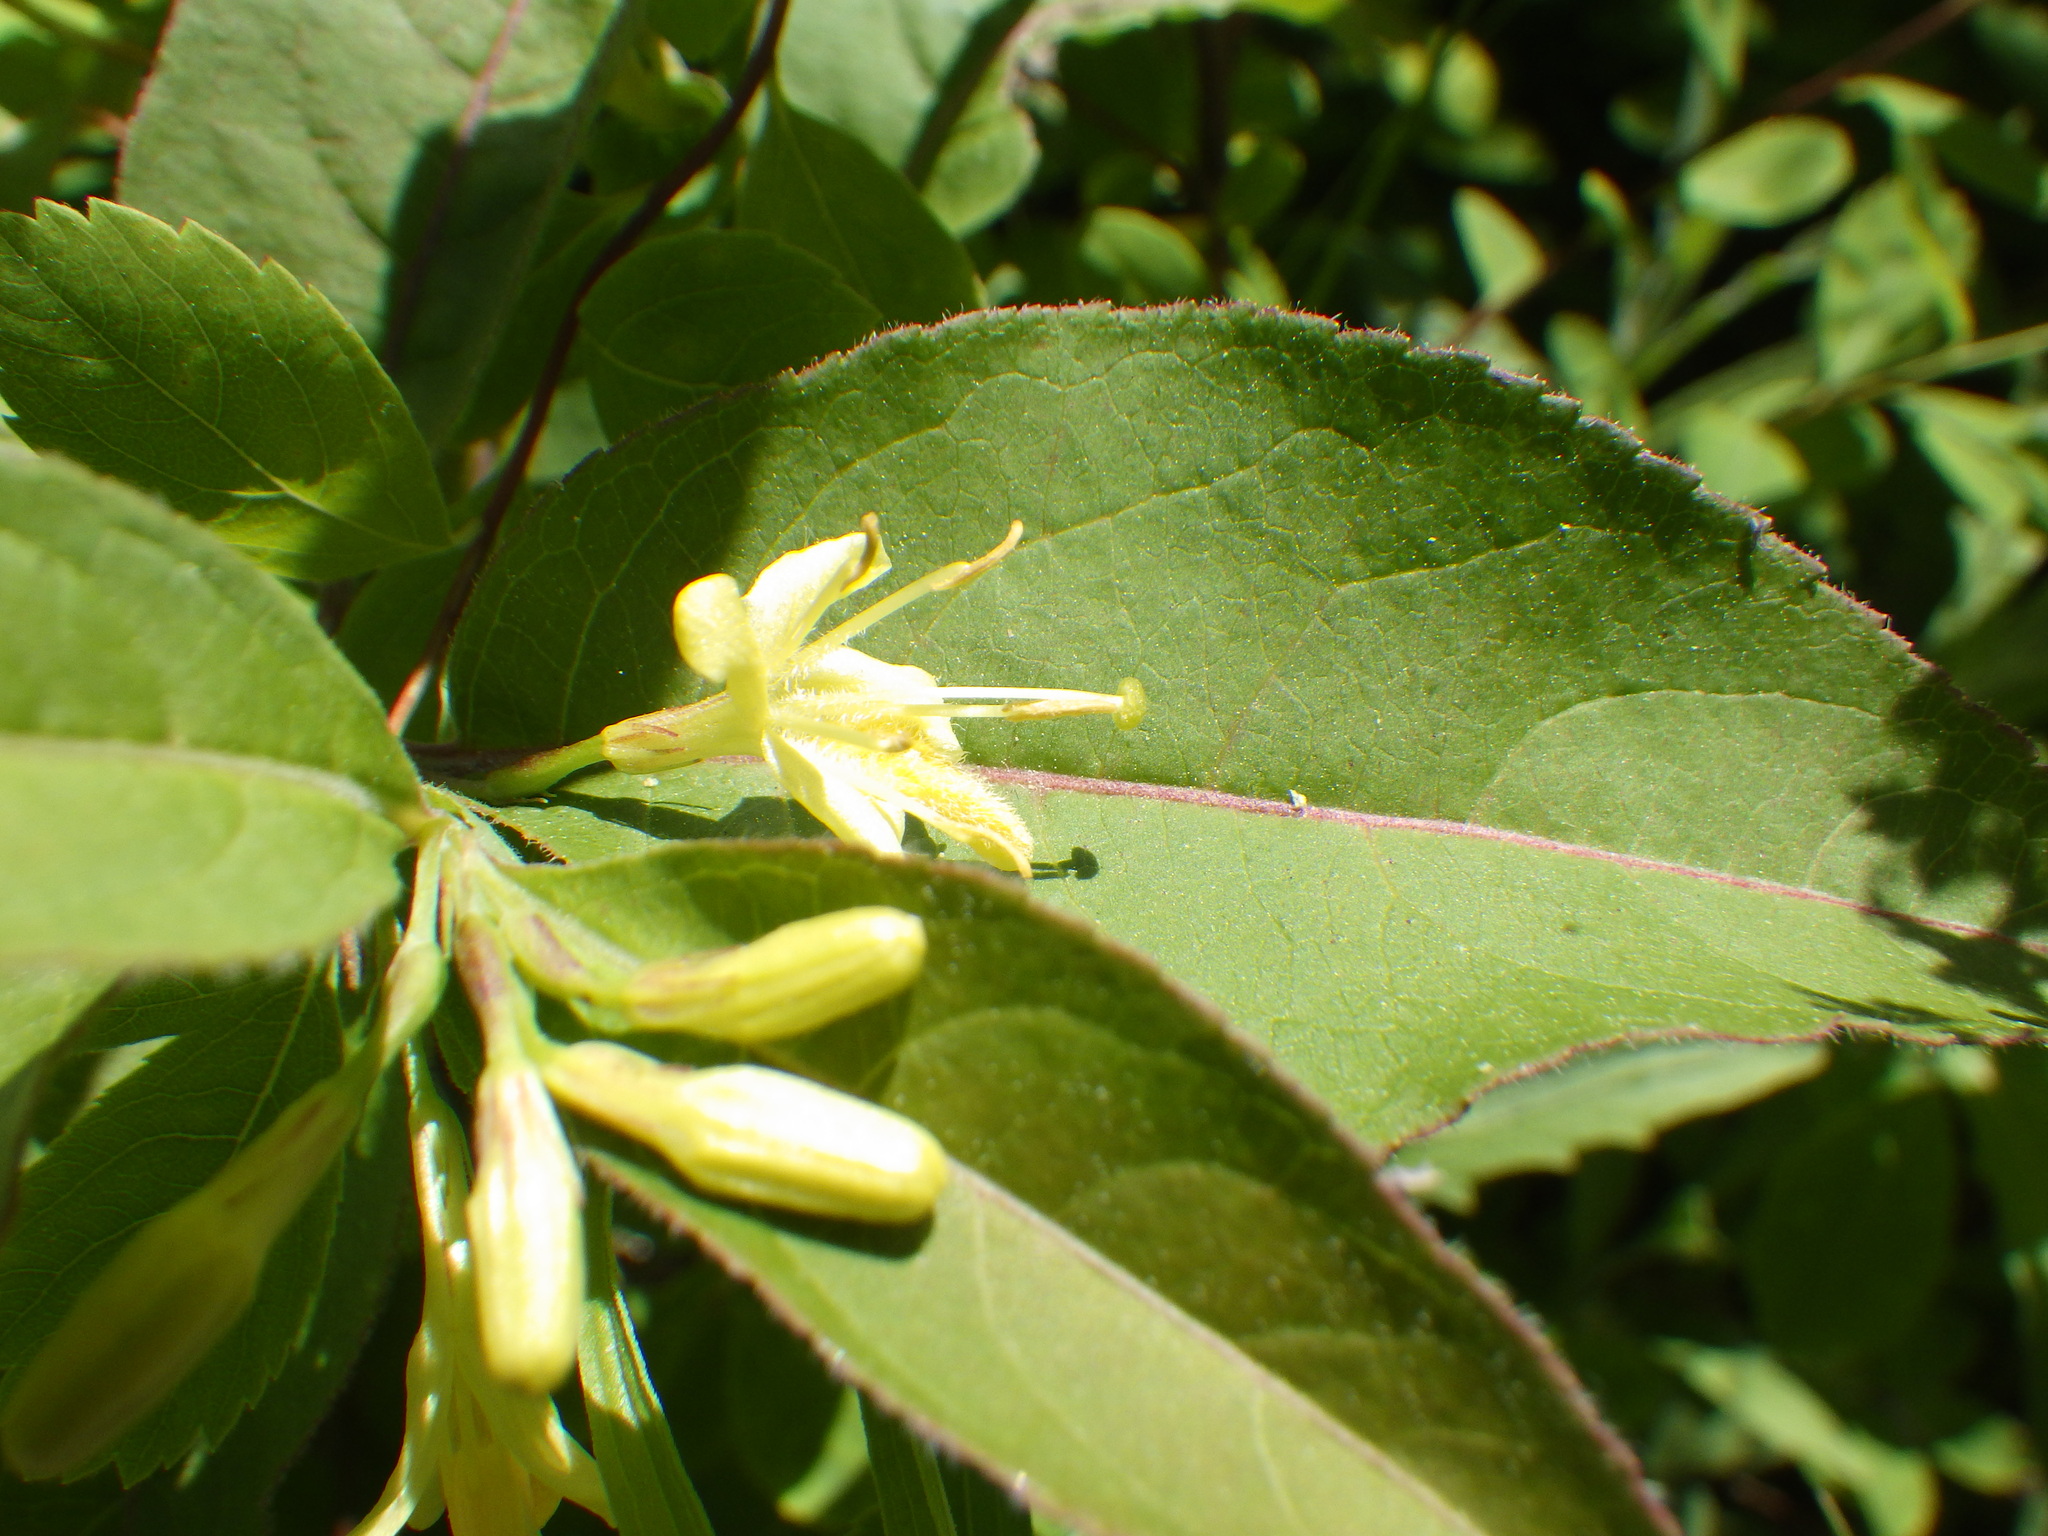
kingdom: Plantae
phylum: Tracheophyta
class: Magnoliopsida
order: Dipsacales
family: Caprifoliaceae
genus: Diervilla
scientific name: Diervilla lonicera
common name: Bush-honeysuckle
